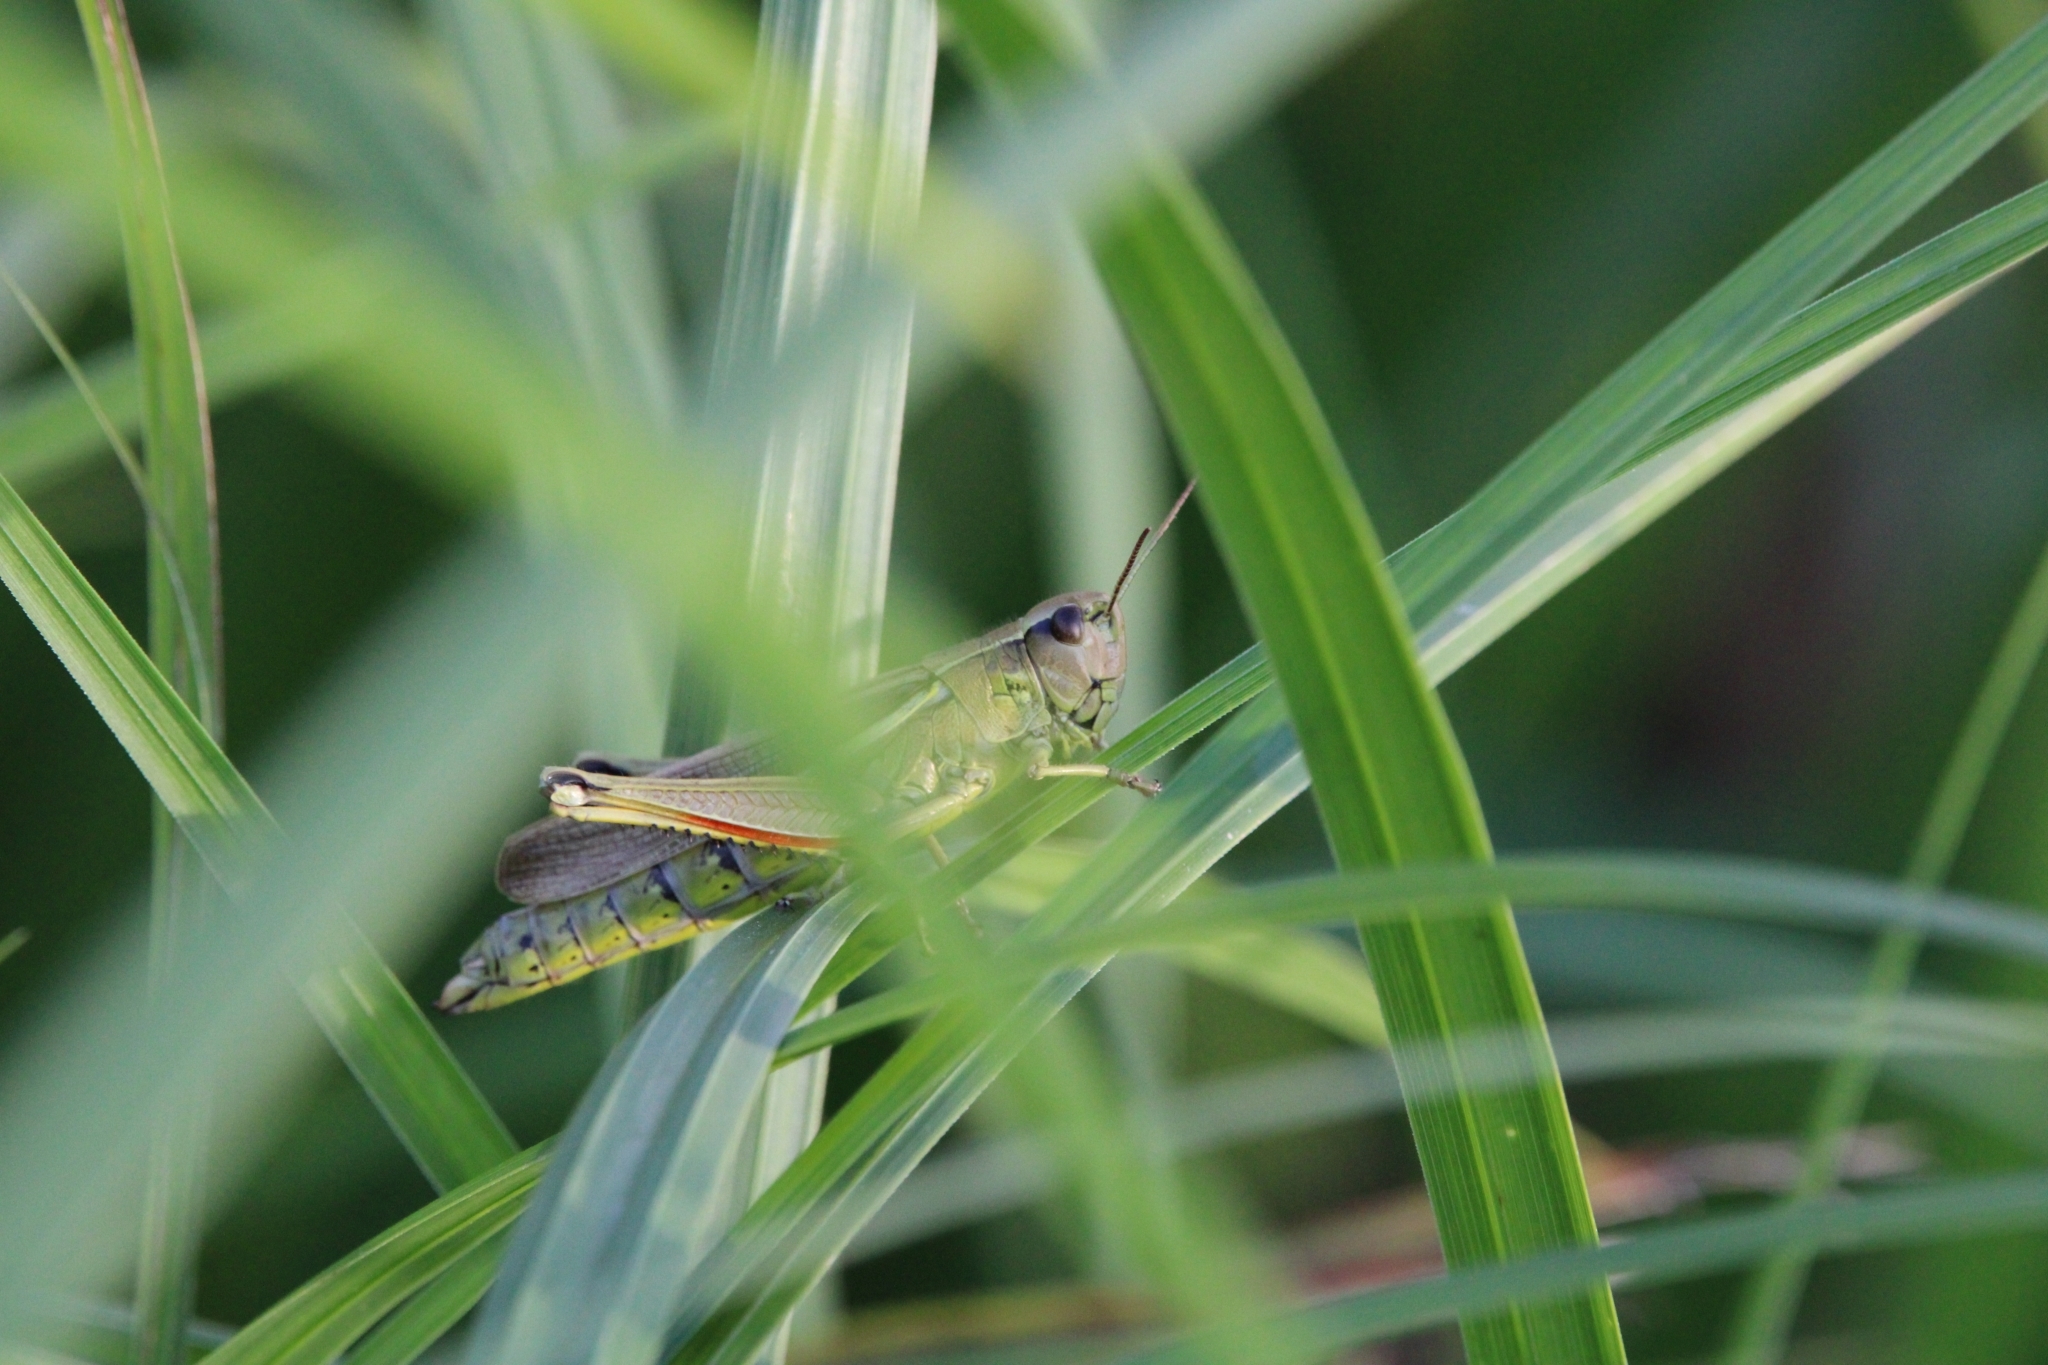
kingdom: Animalia
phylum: Arthropoda
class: Insecta
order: Orthoptera
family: Acrididae
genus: Stethophyma
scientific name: Stethophyma grossum
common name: Large marsh grasshopper
